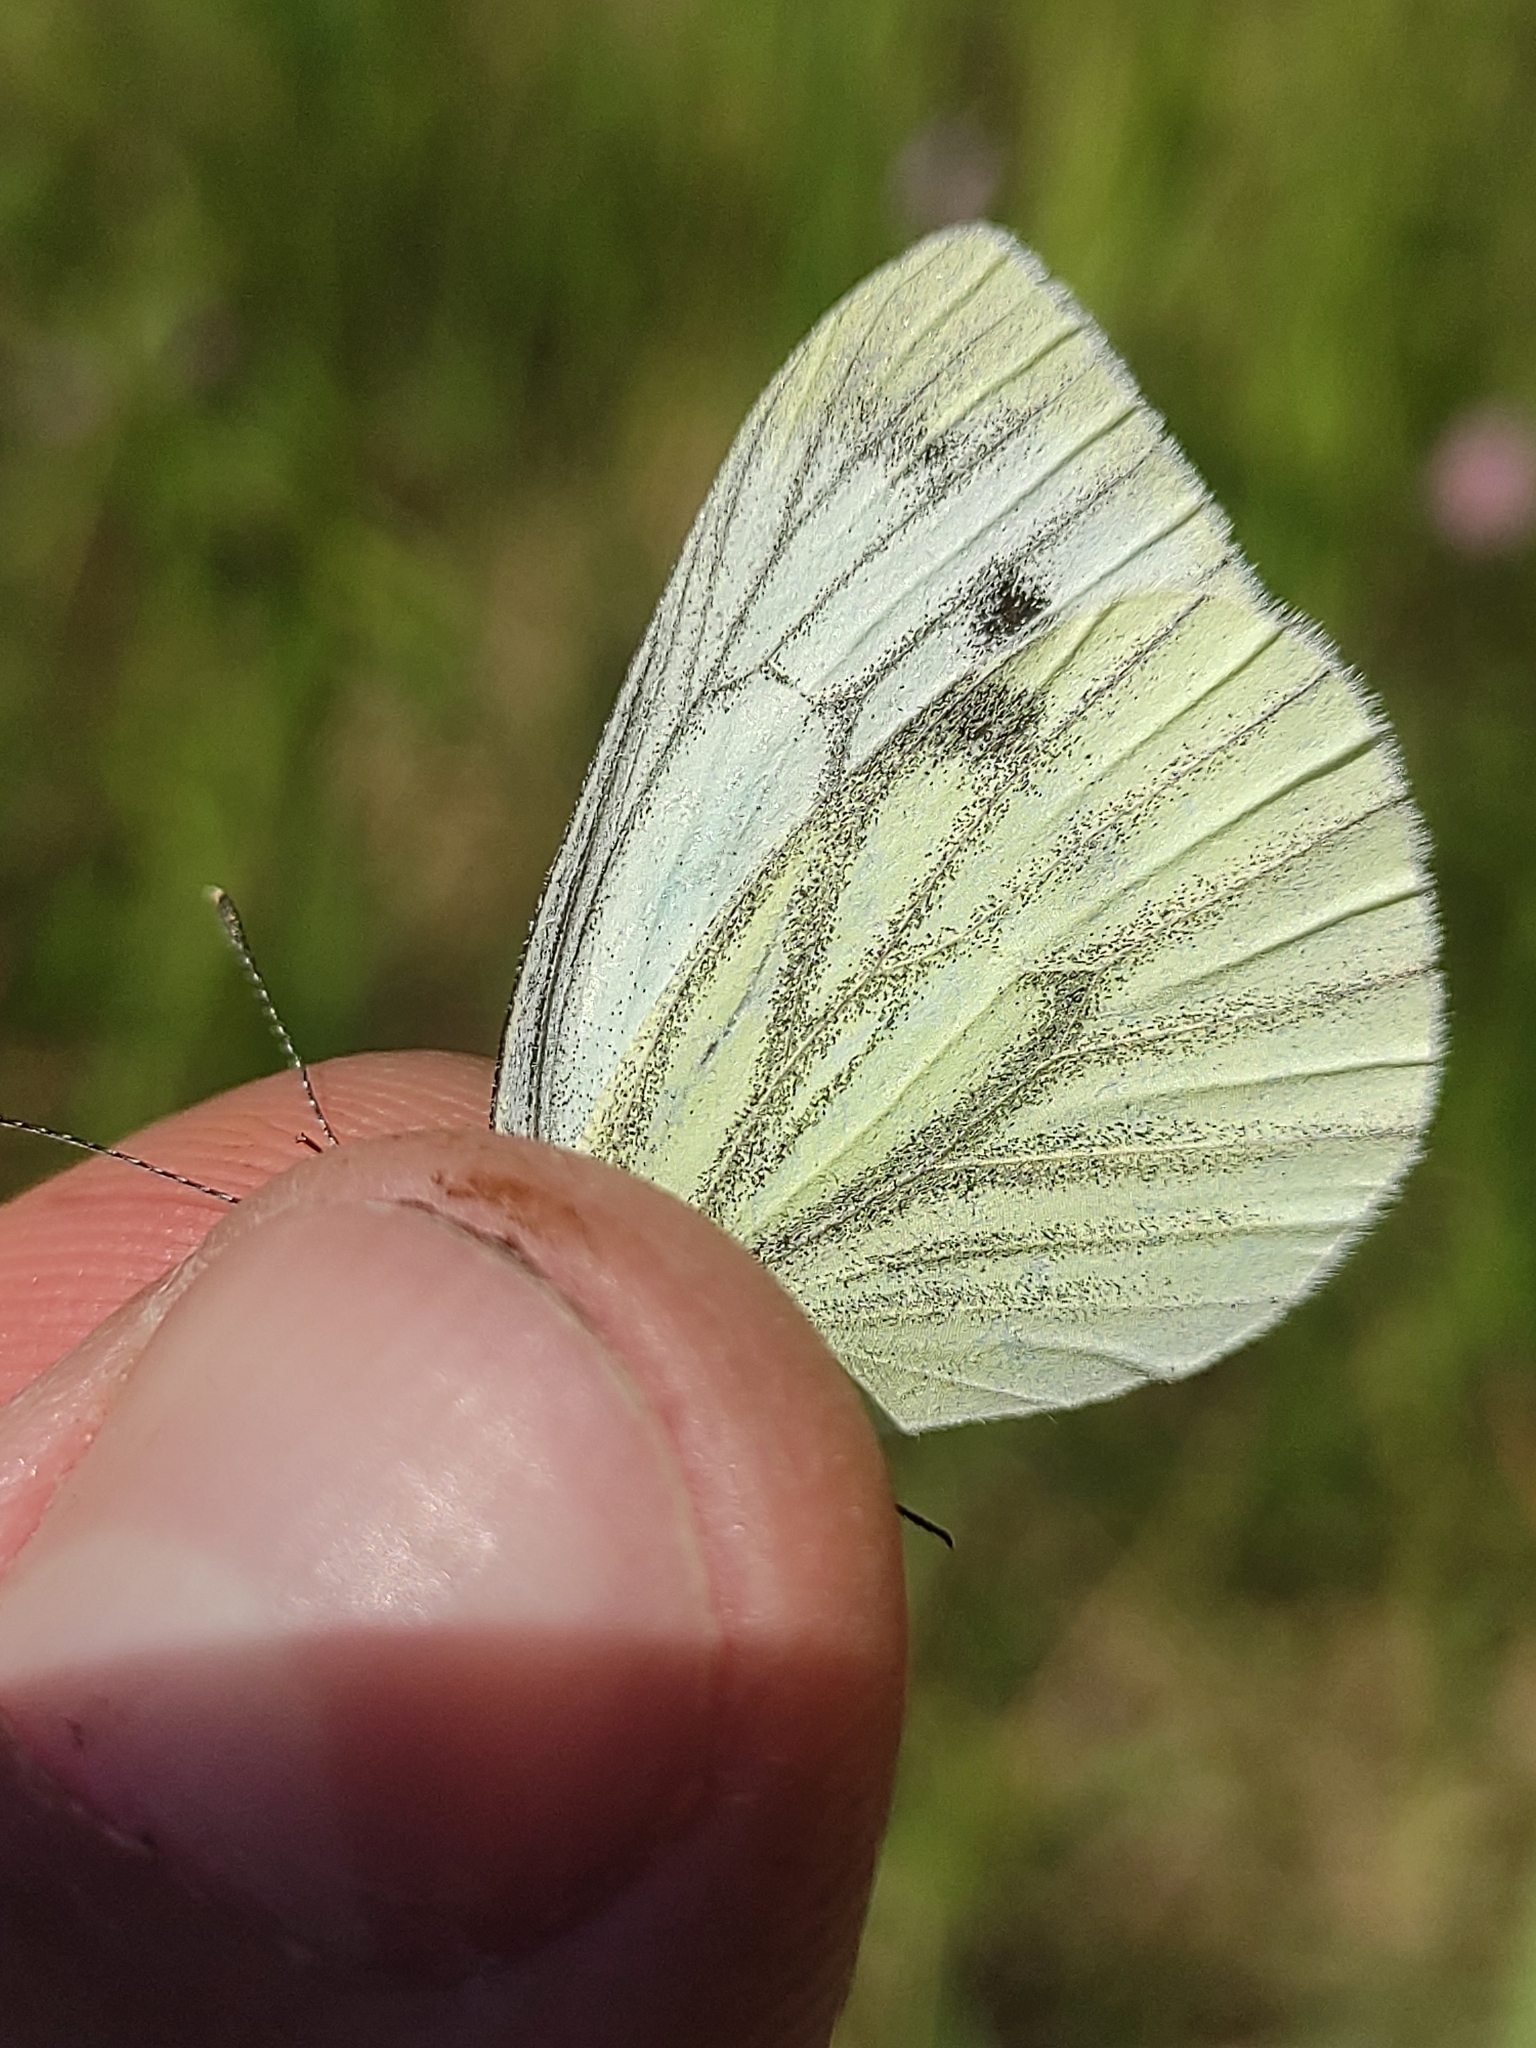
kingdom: Animalia
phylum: Arthropoda
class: Insecta
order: Lepidoptera
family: Pieridae
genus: Pieris
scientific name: Pieris napi
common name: Green-veined white
